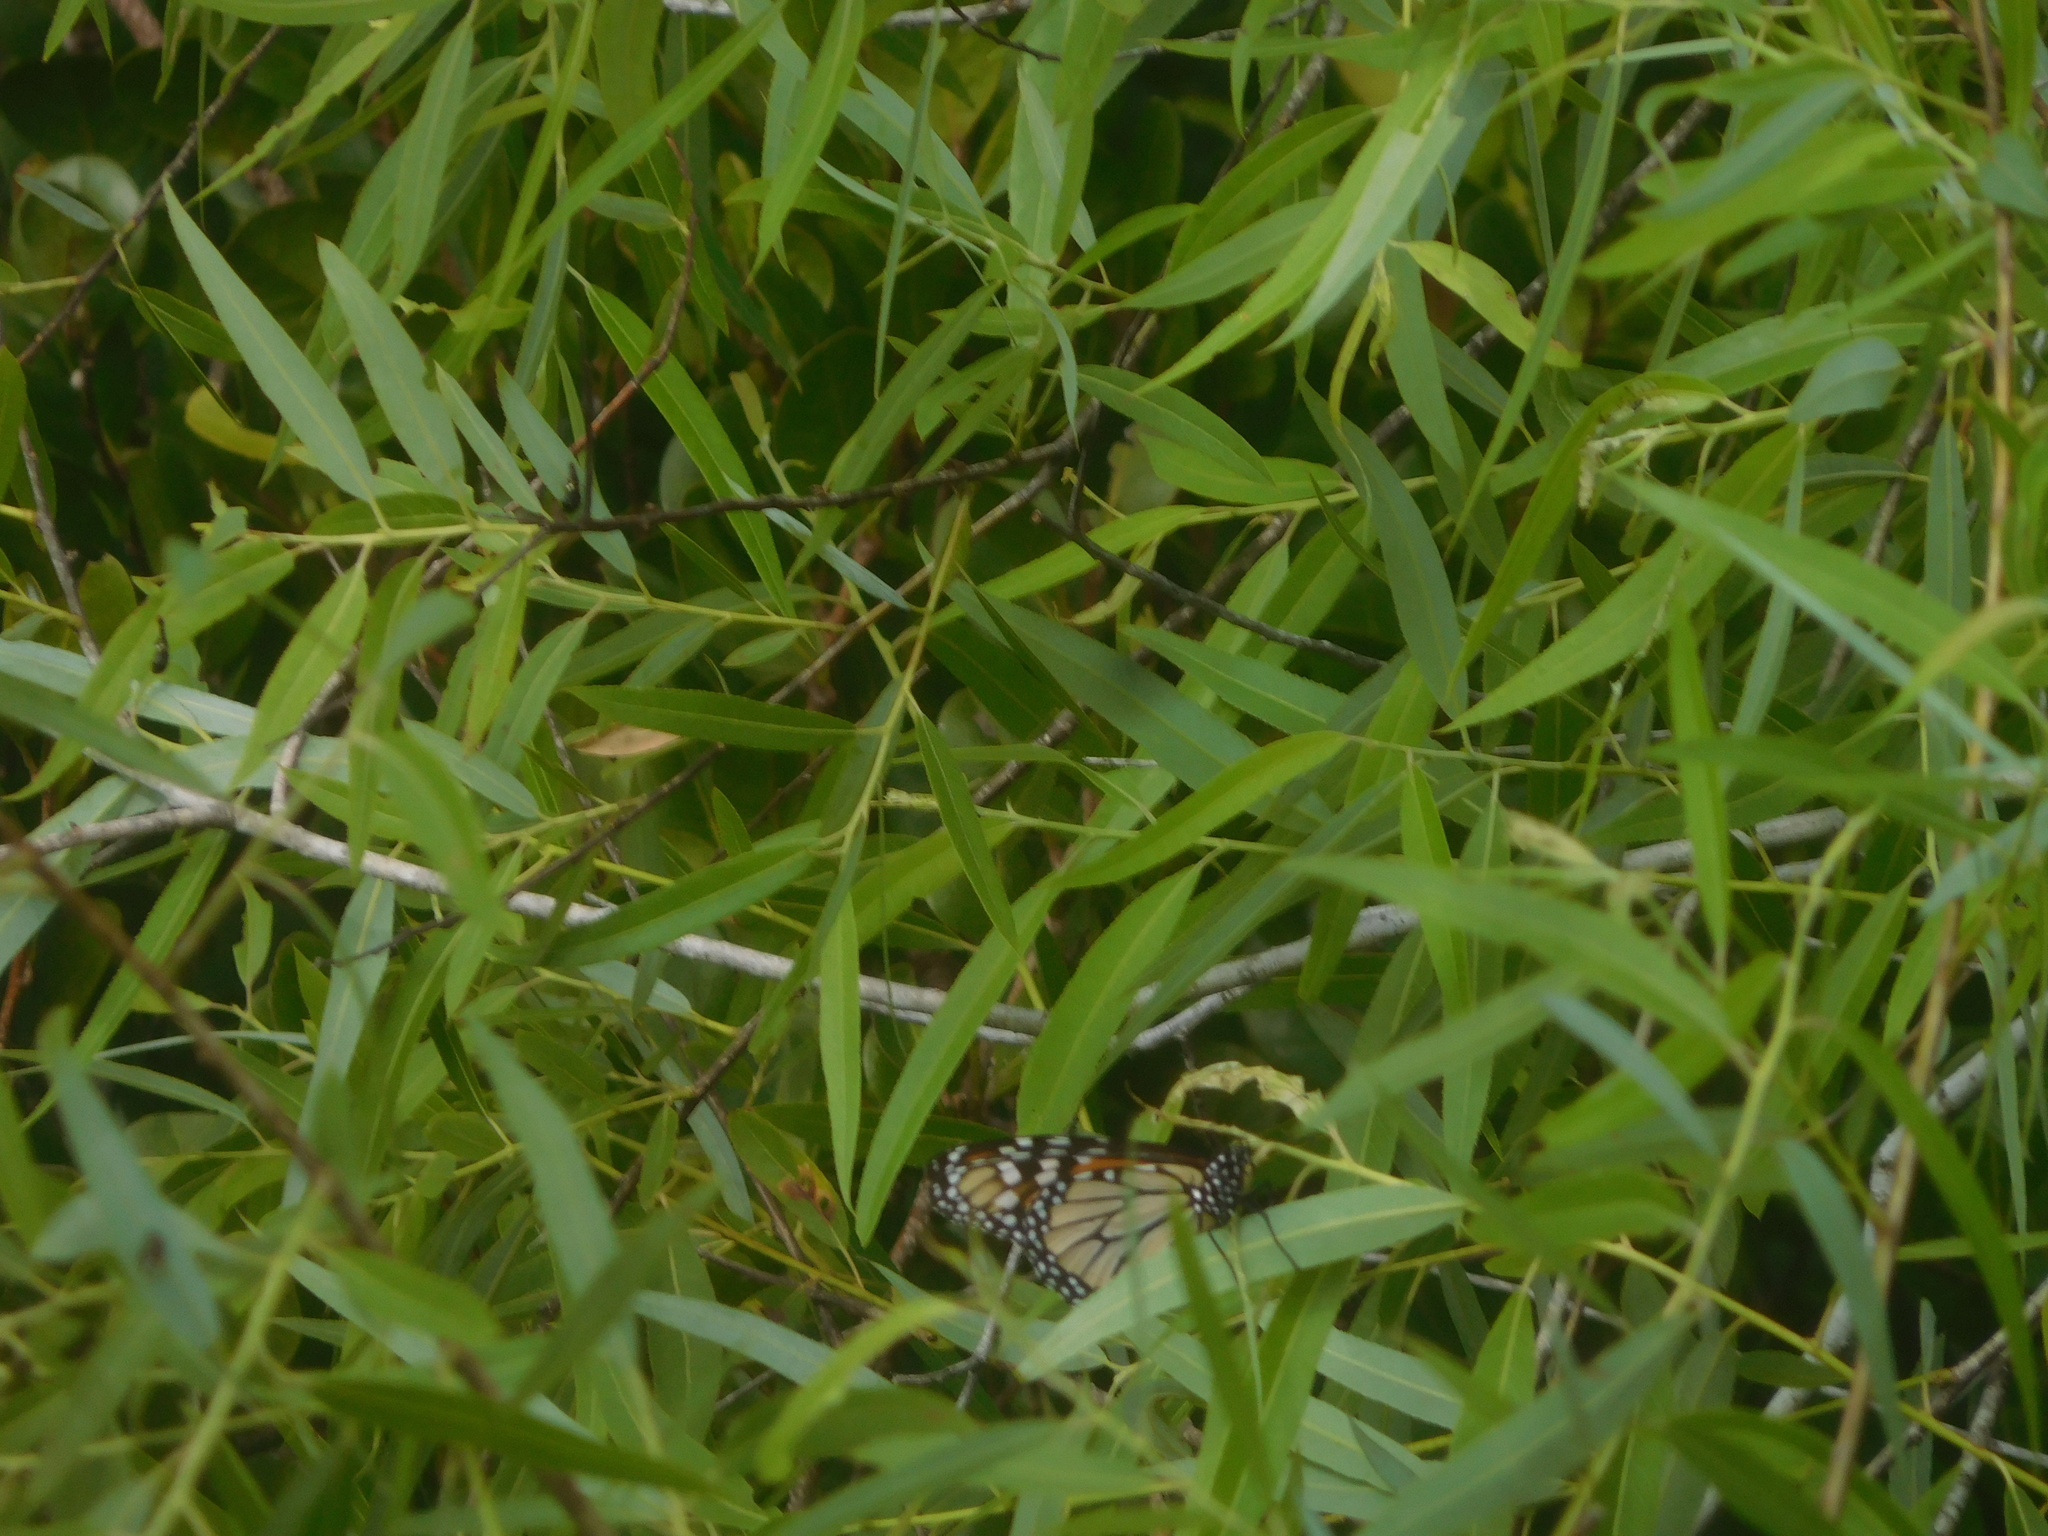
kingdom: Animalia
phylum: Arthropoda
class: Insecta
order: Lepidoptera
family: Nymphalidae
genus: Danaus
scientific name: Danaus plexippus
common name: Monarch
